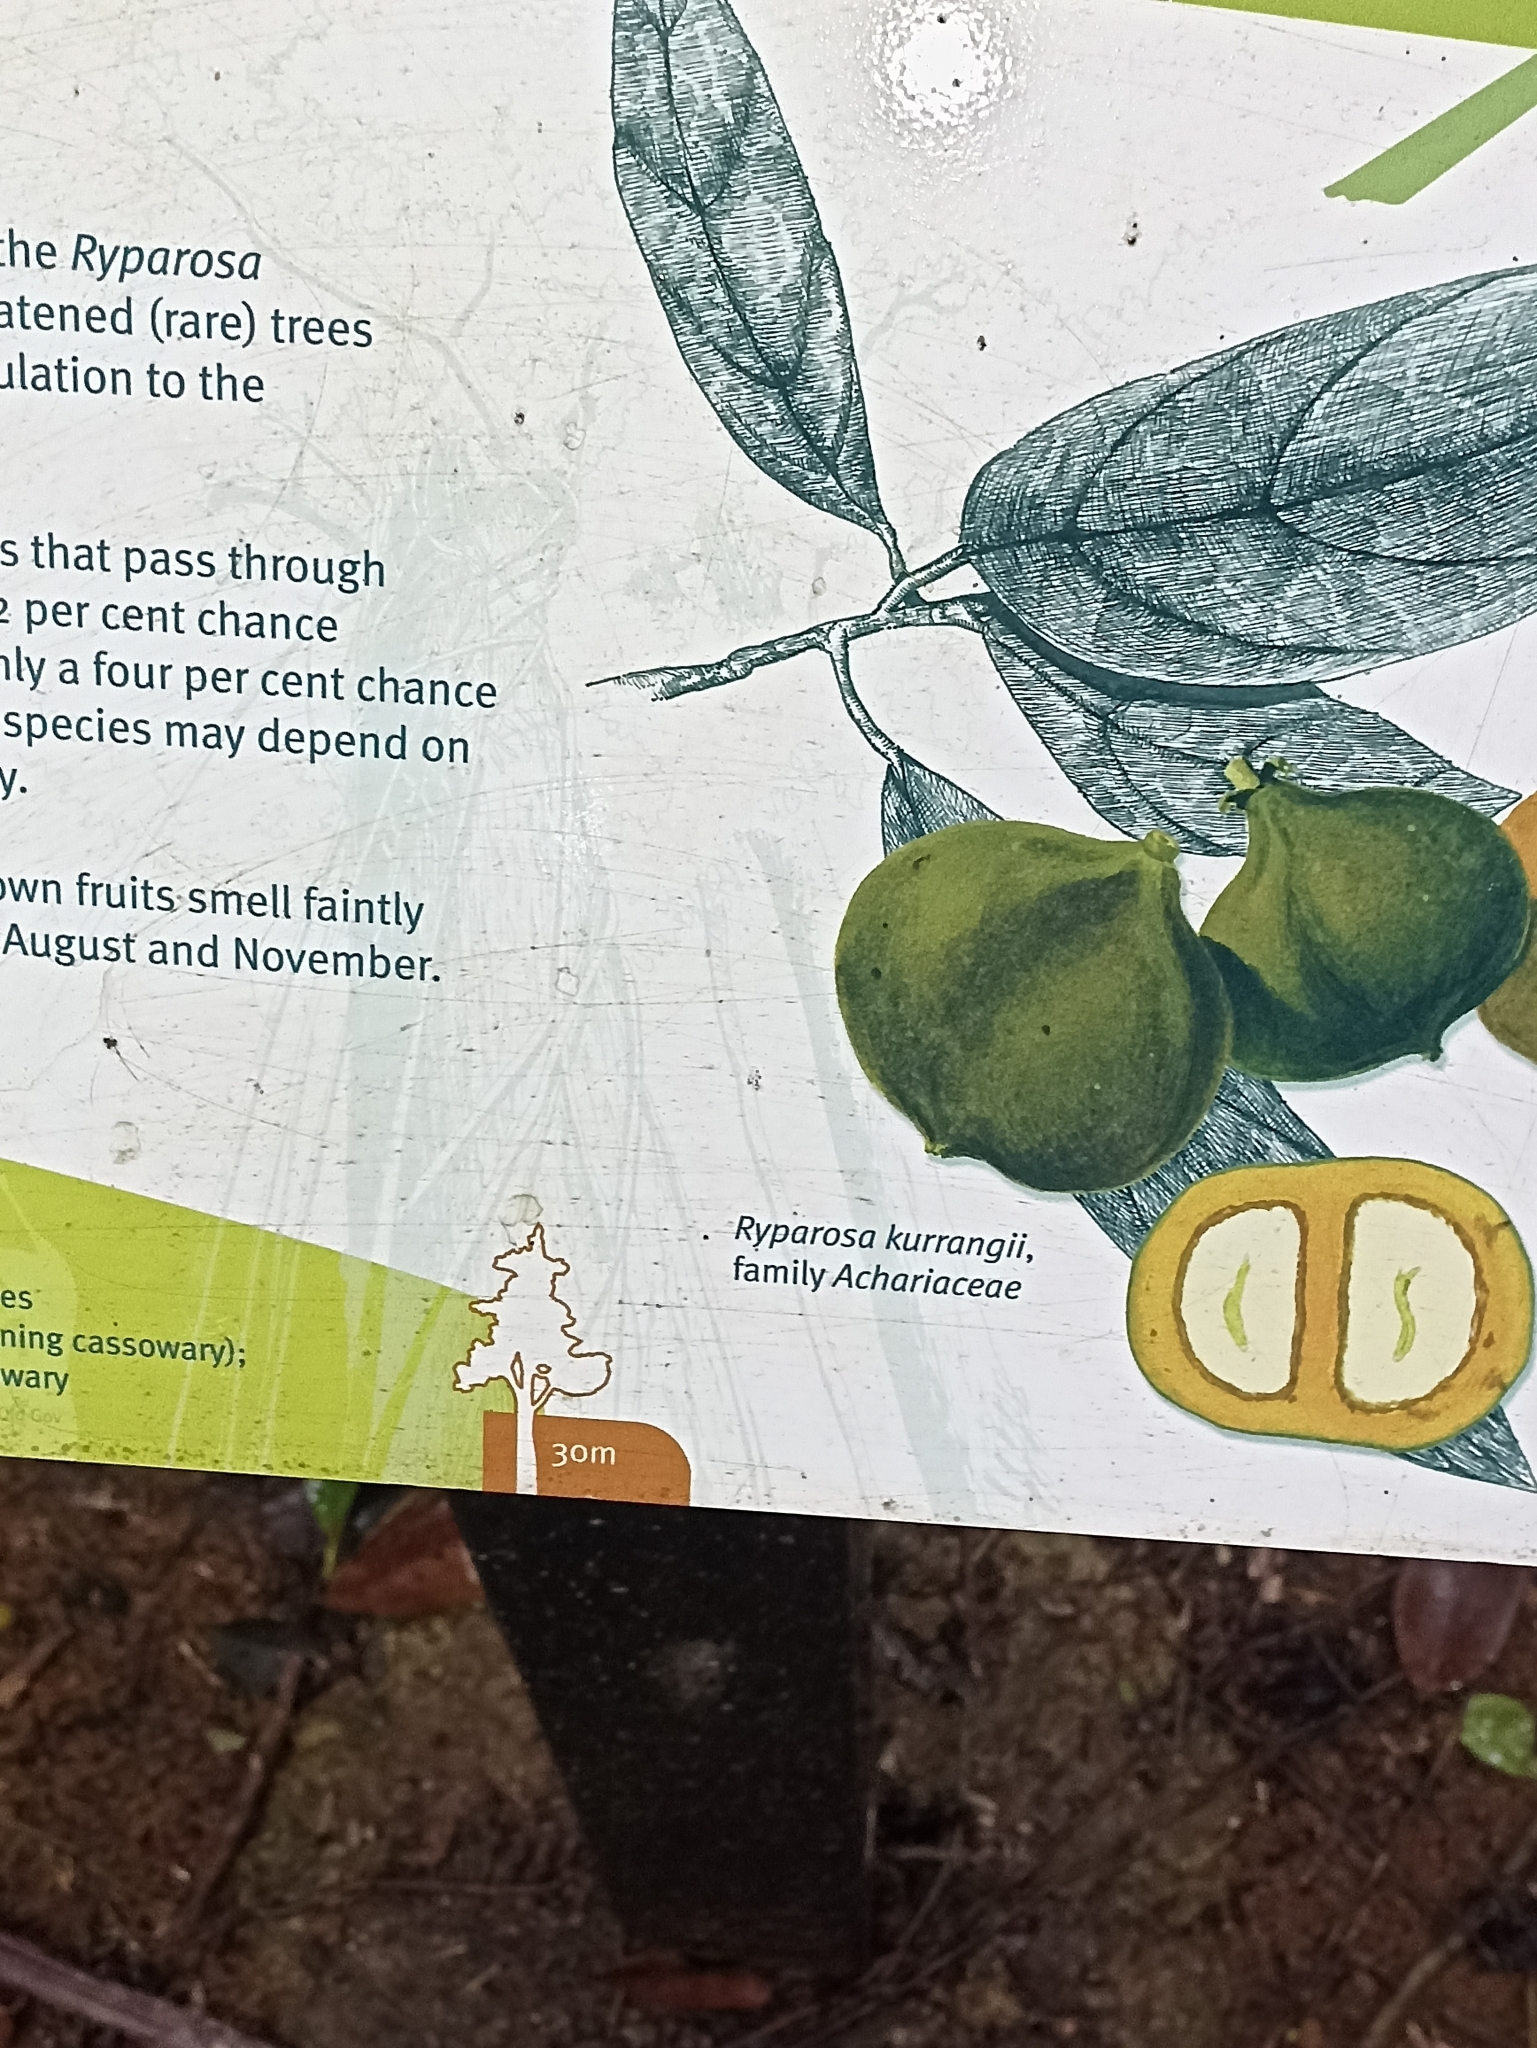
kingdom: Plantae
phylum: Tracheophyta
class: Magnoliopsida
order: Malpighiales
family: Achariaceae
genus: Ryparosa
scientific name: Ryparosa kurrangii
